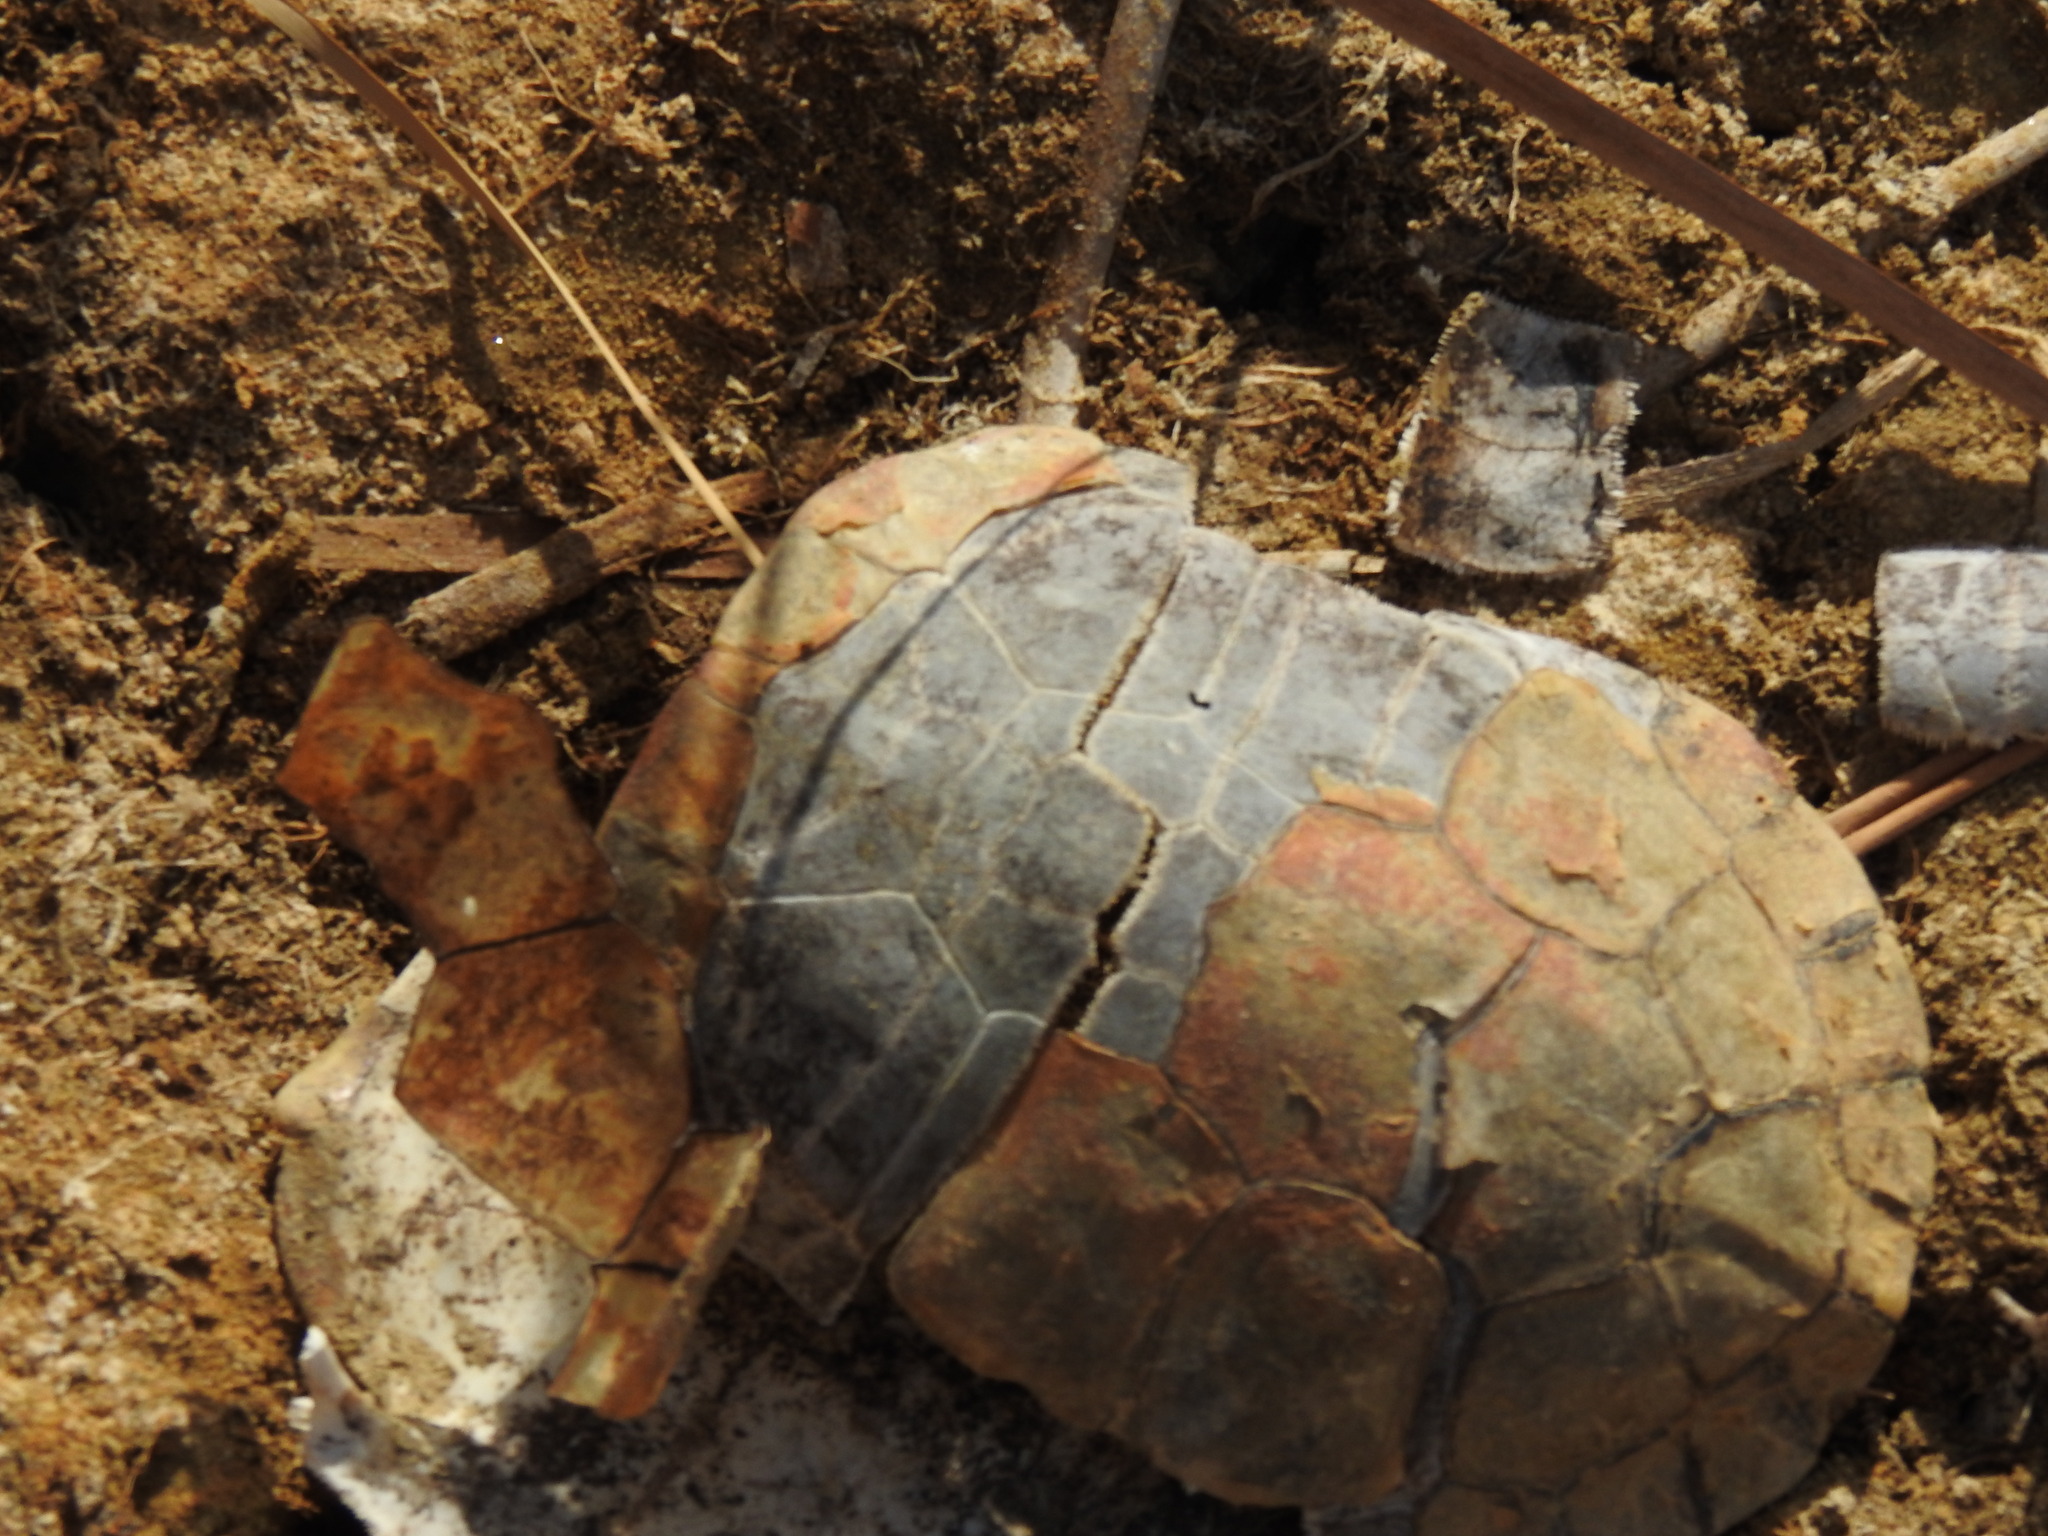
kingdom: Animalia
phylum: Chordata
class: Testudines
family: Geoemydidae
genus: Mauremys
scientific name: Mauremys leprosa
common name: Mediterranean pond turtle
